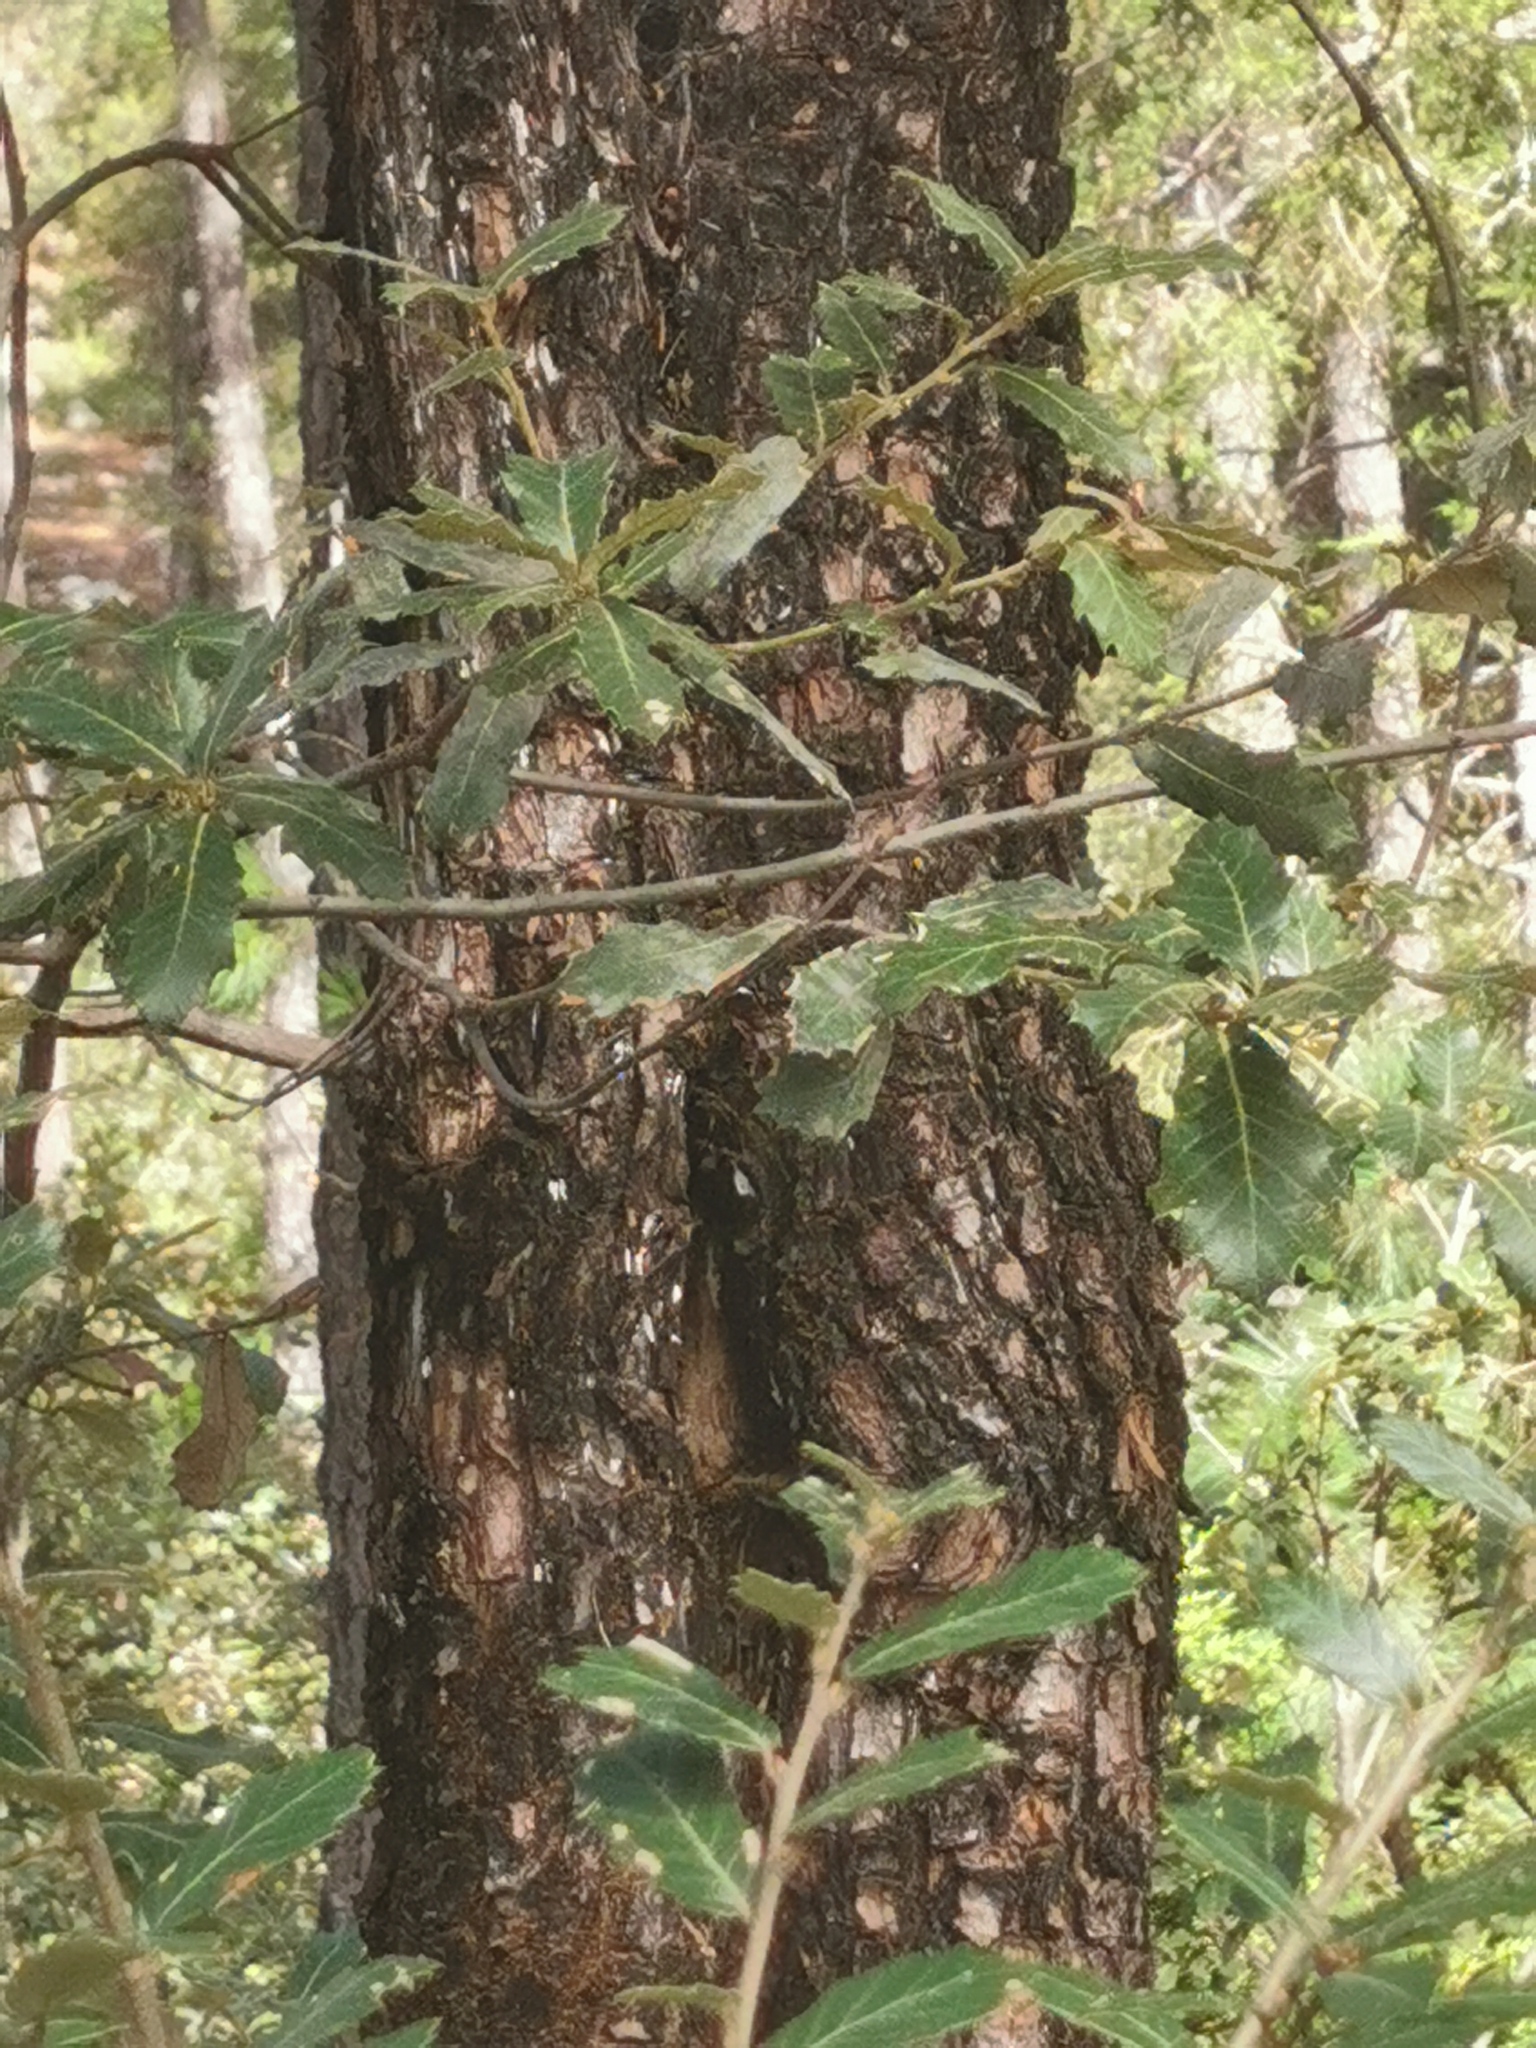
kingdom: Plantae
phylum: Tracheophyta
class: Pinopsida
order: Pinales
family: Cupressaceae
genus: Juniperus
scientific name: Juniperus deppeana
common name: Alligator juniper
